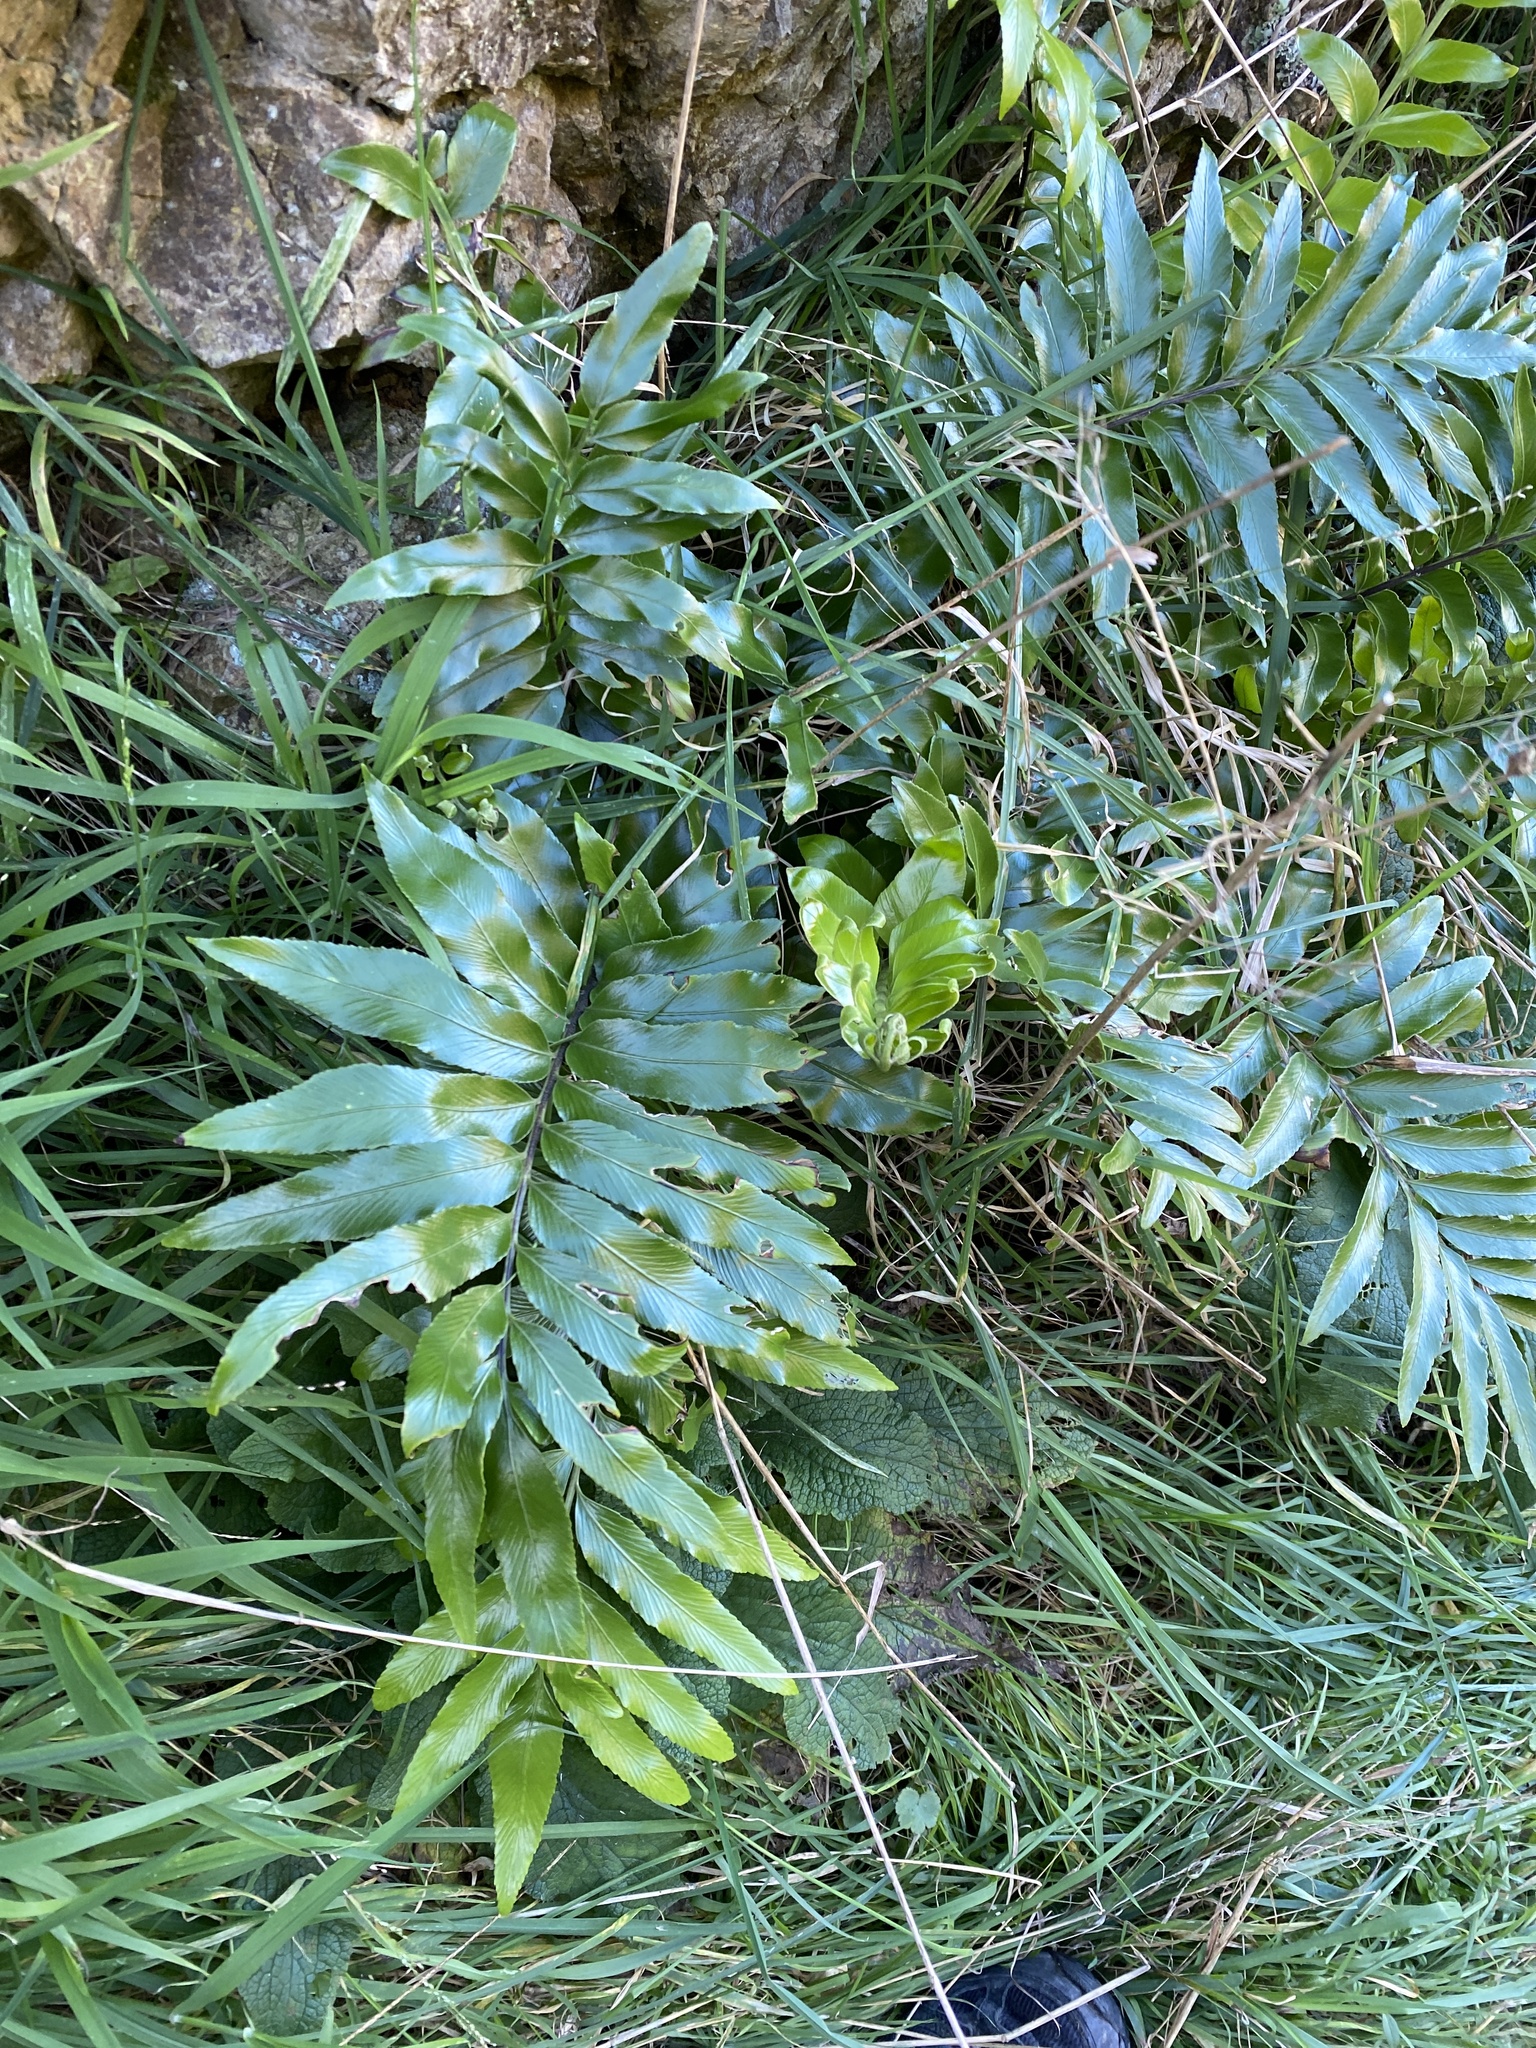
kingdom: Plantae
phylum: Tracheophyta
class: Polypodiopsida
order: Polypodiales
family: Aspleniaceae
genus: Asplenium
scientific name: Asplenium oblongifolium
